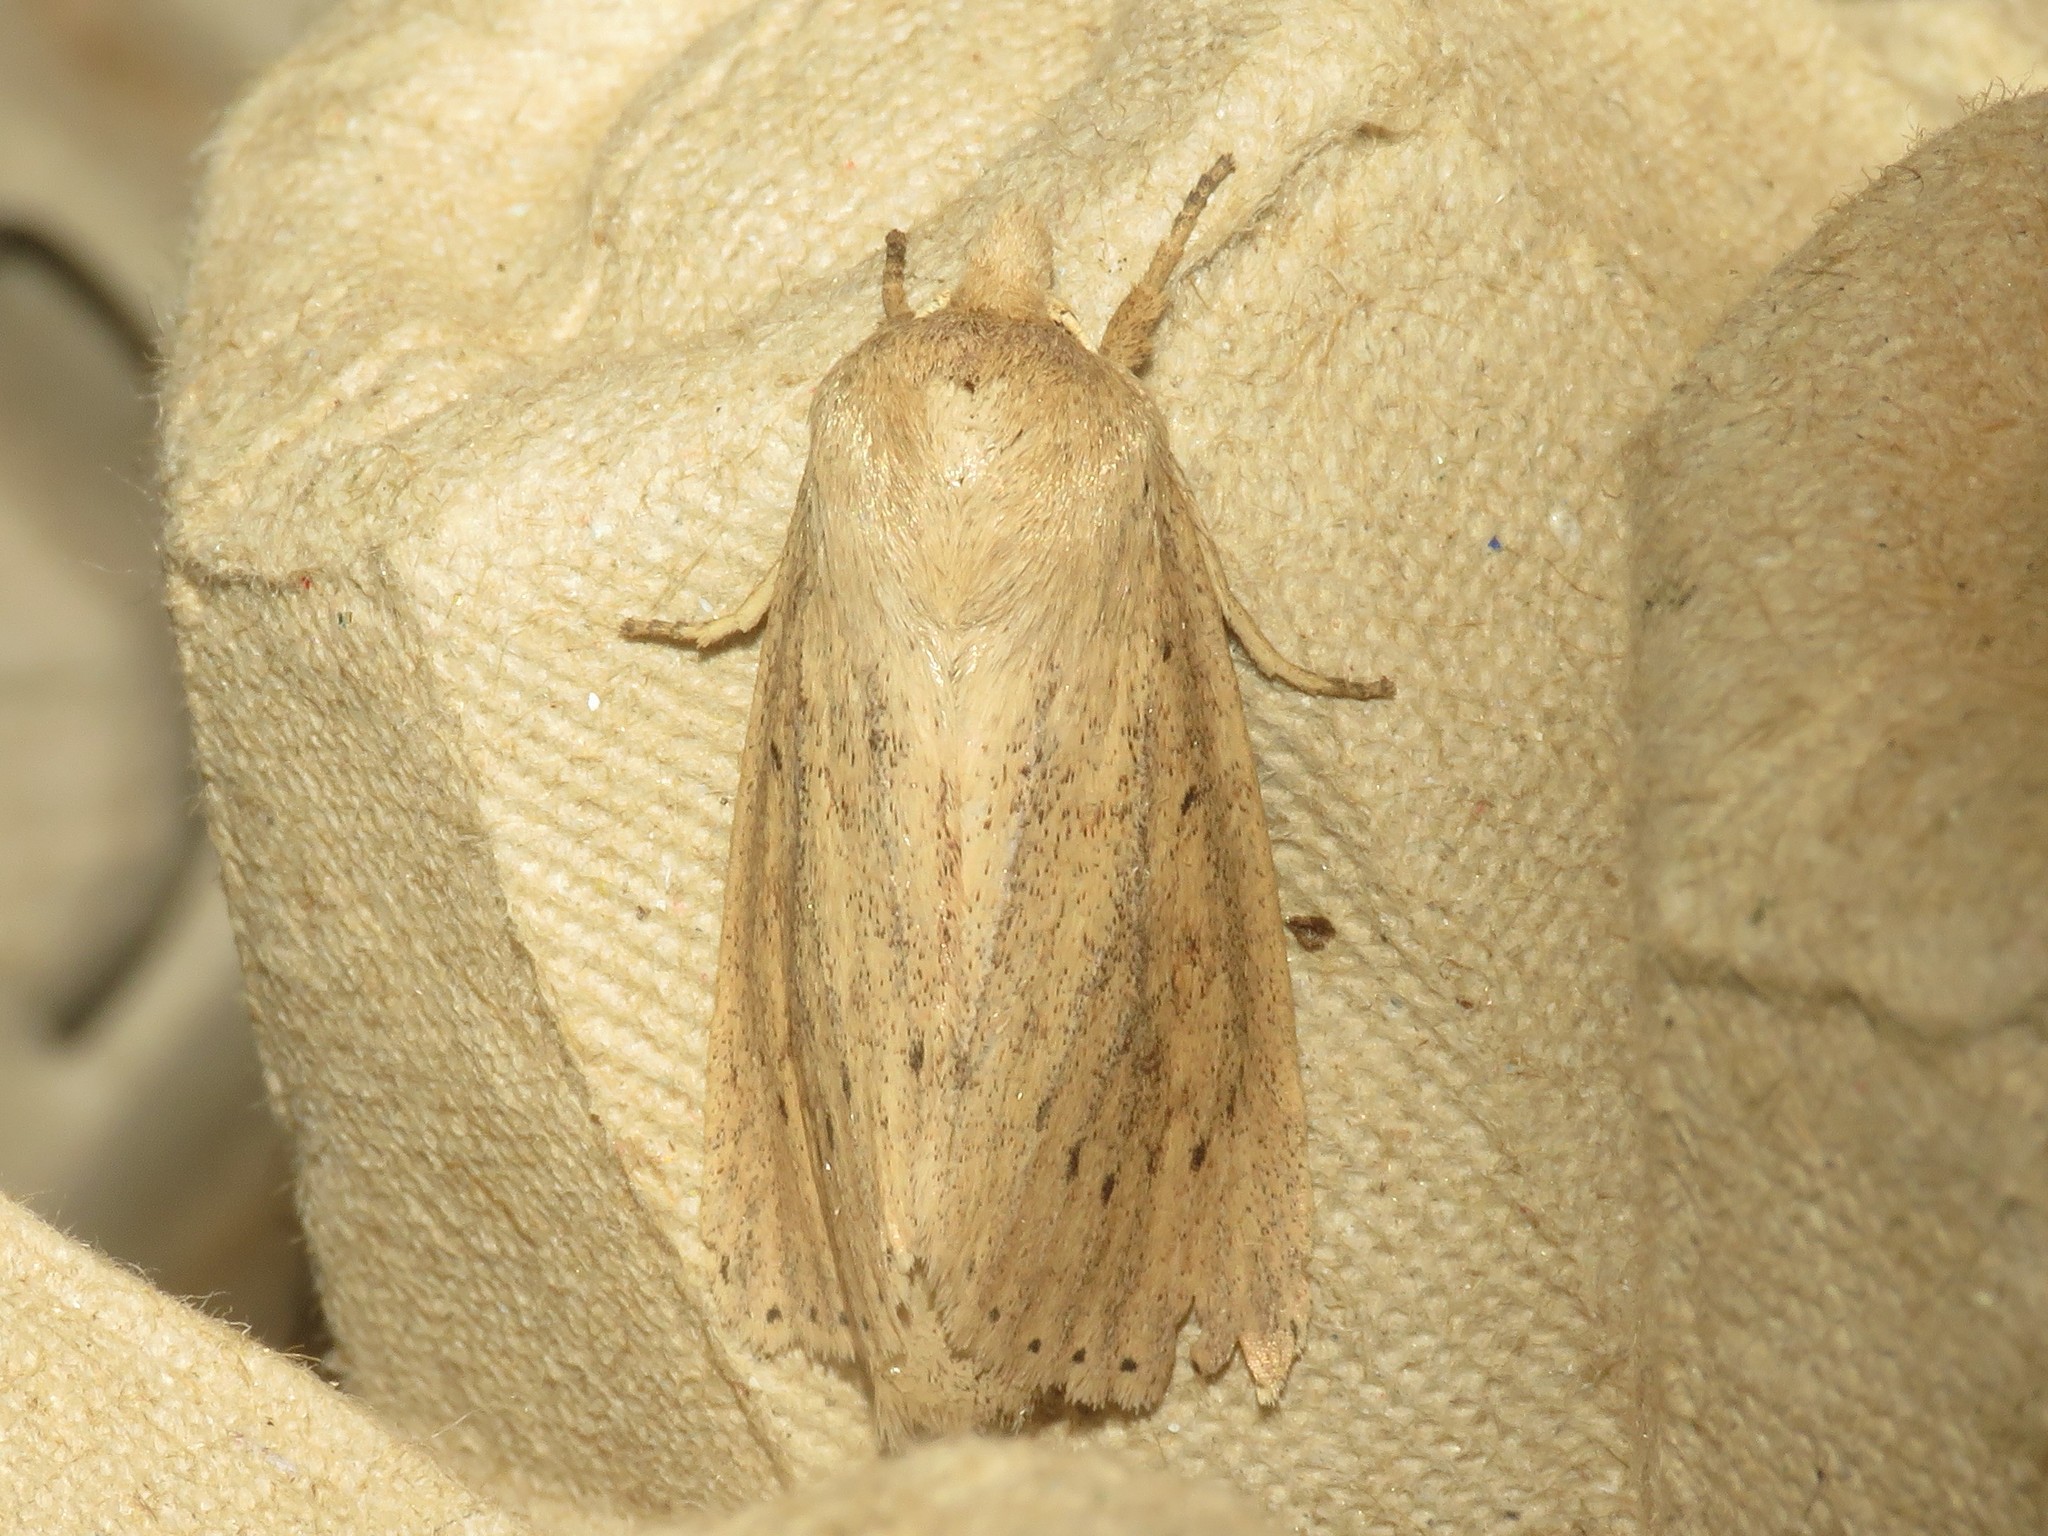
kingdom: Animalia
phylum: Arthropoda
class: Insecta
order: Lepidoptera
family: Noctuidae
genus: Globia
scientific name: Globia oblonga
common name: Oblong sedge borer moth
